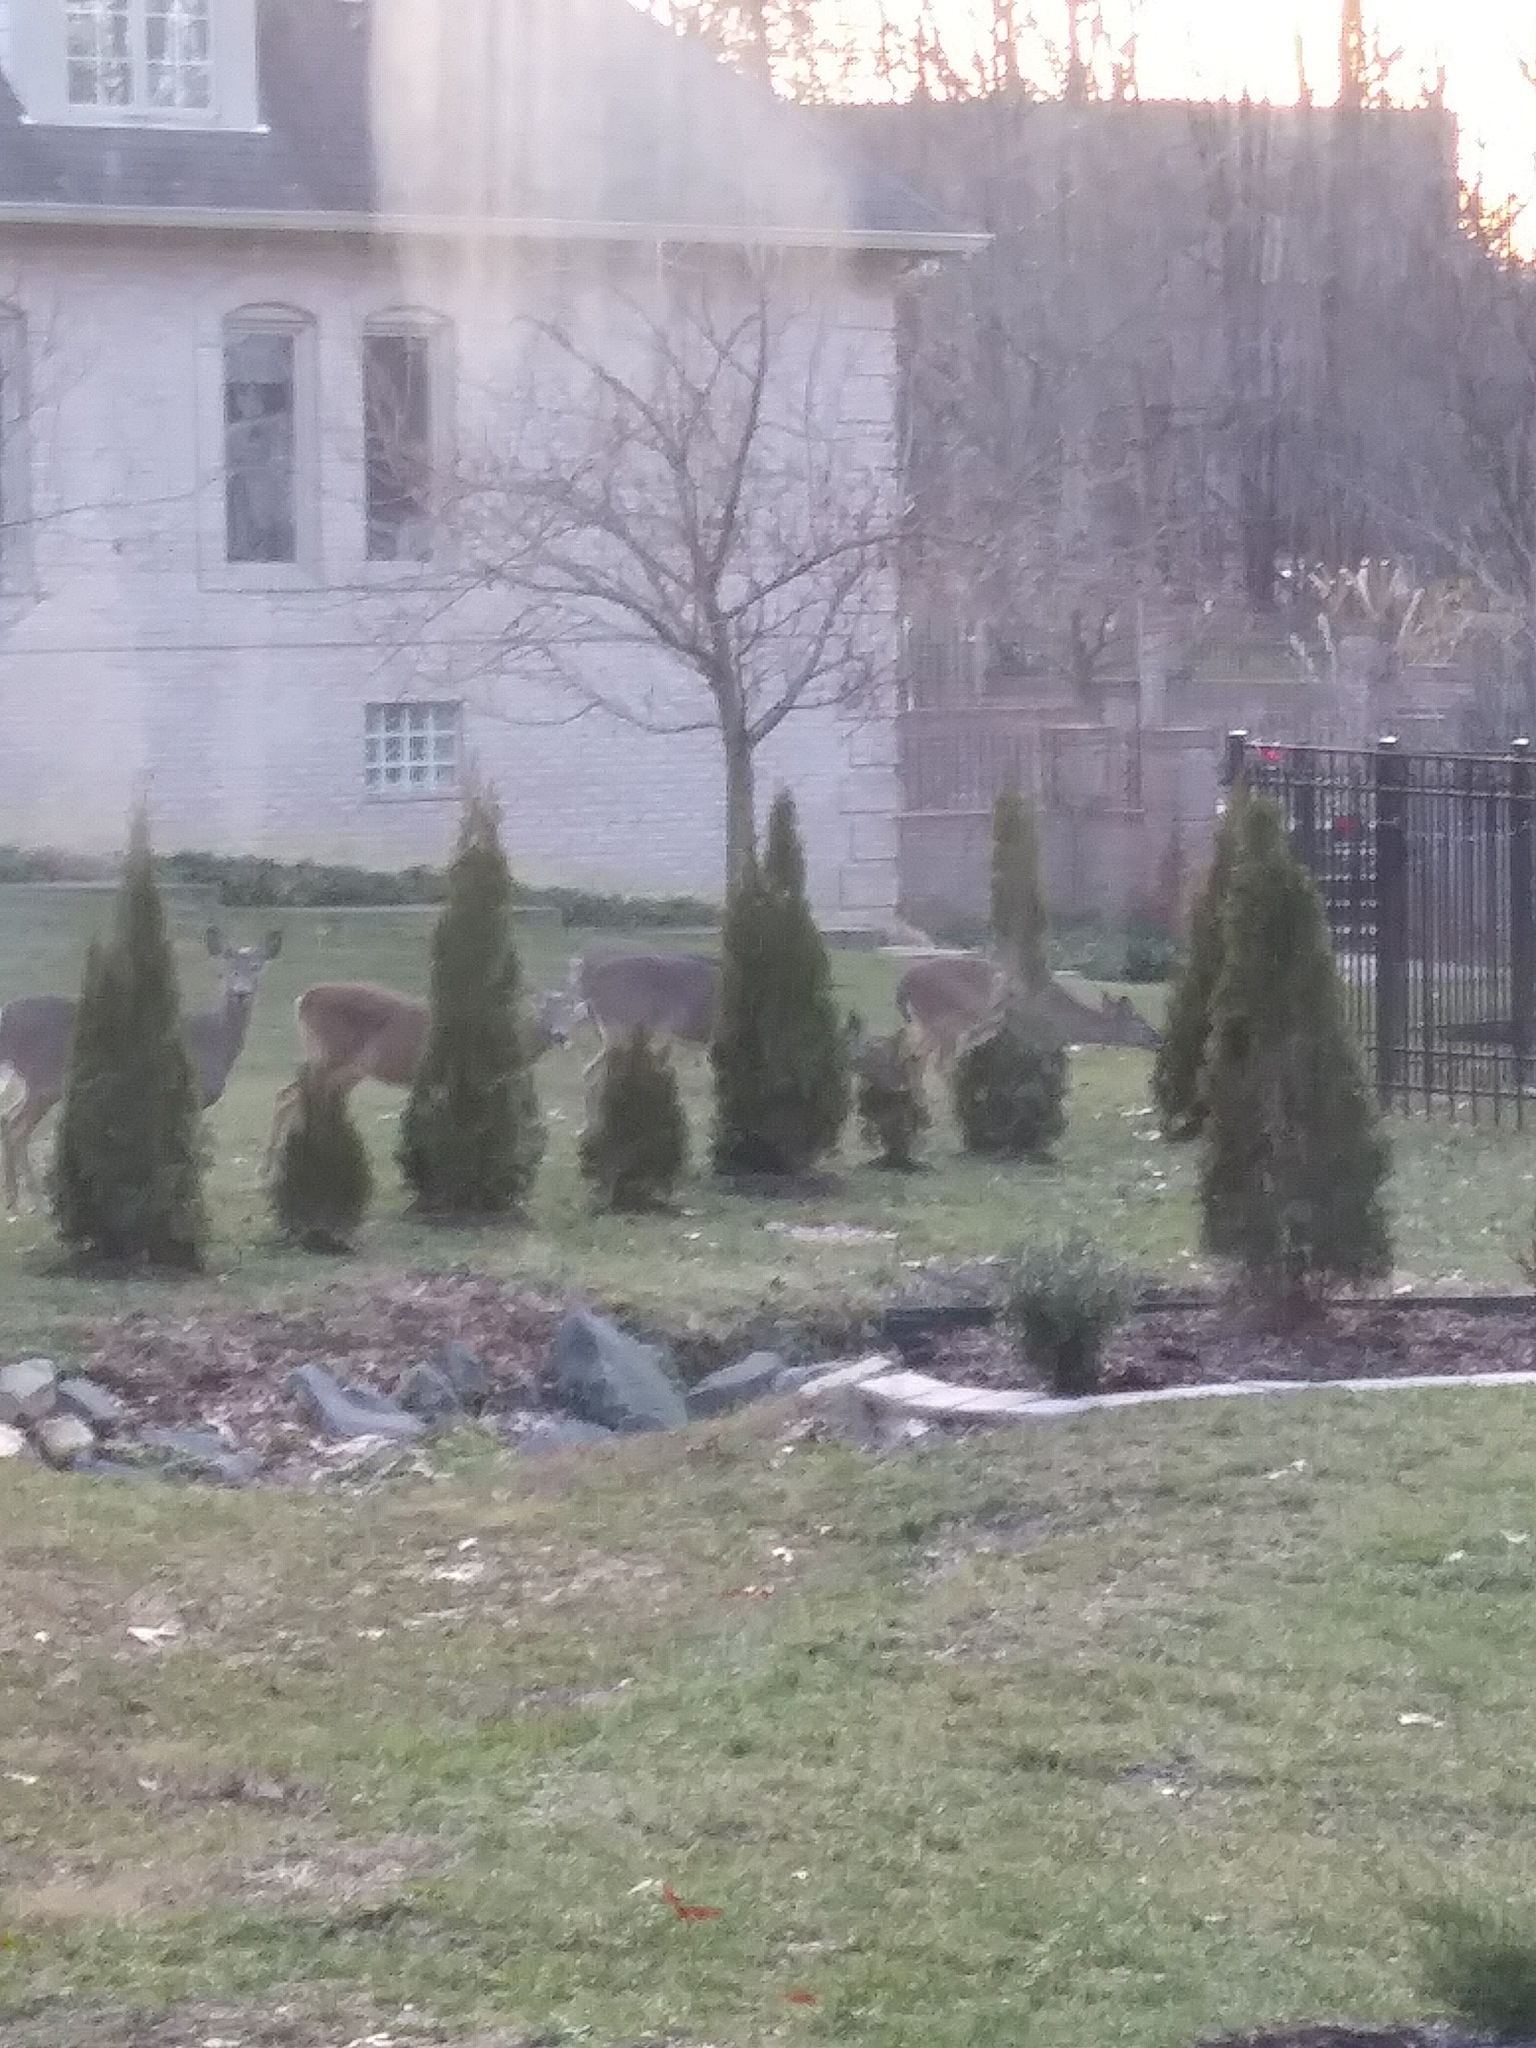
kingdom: Animalia
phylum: Chordata
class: Mammalia
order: Artiodactyla
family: Cervidae
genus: Odocoileus
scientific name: Odocoileus virginianus
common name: White-tailed deer
